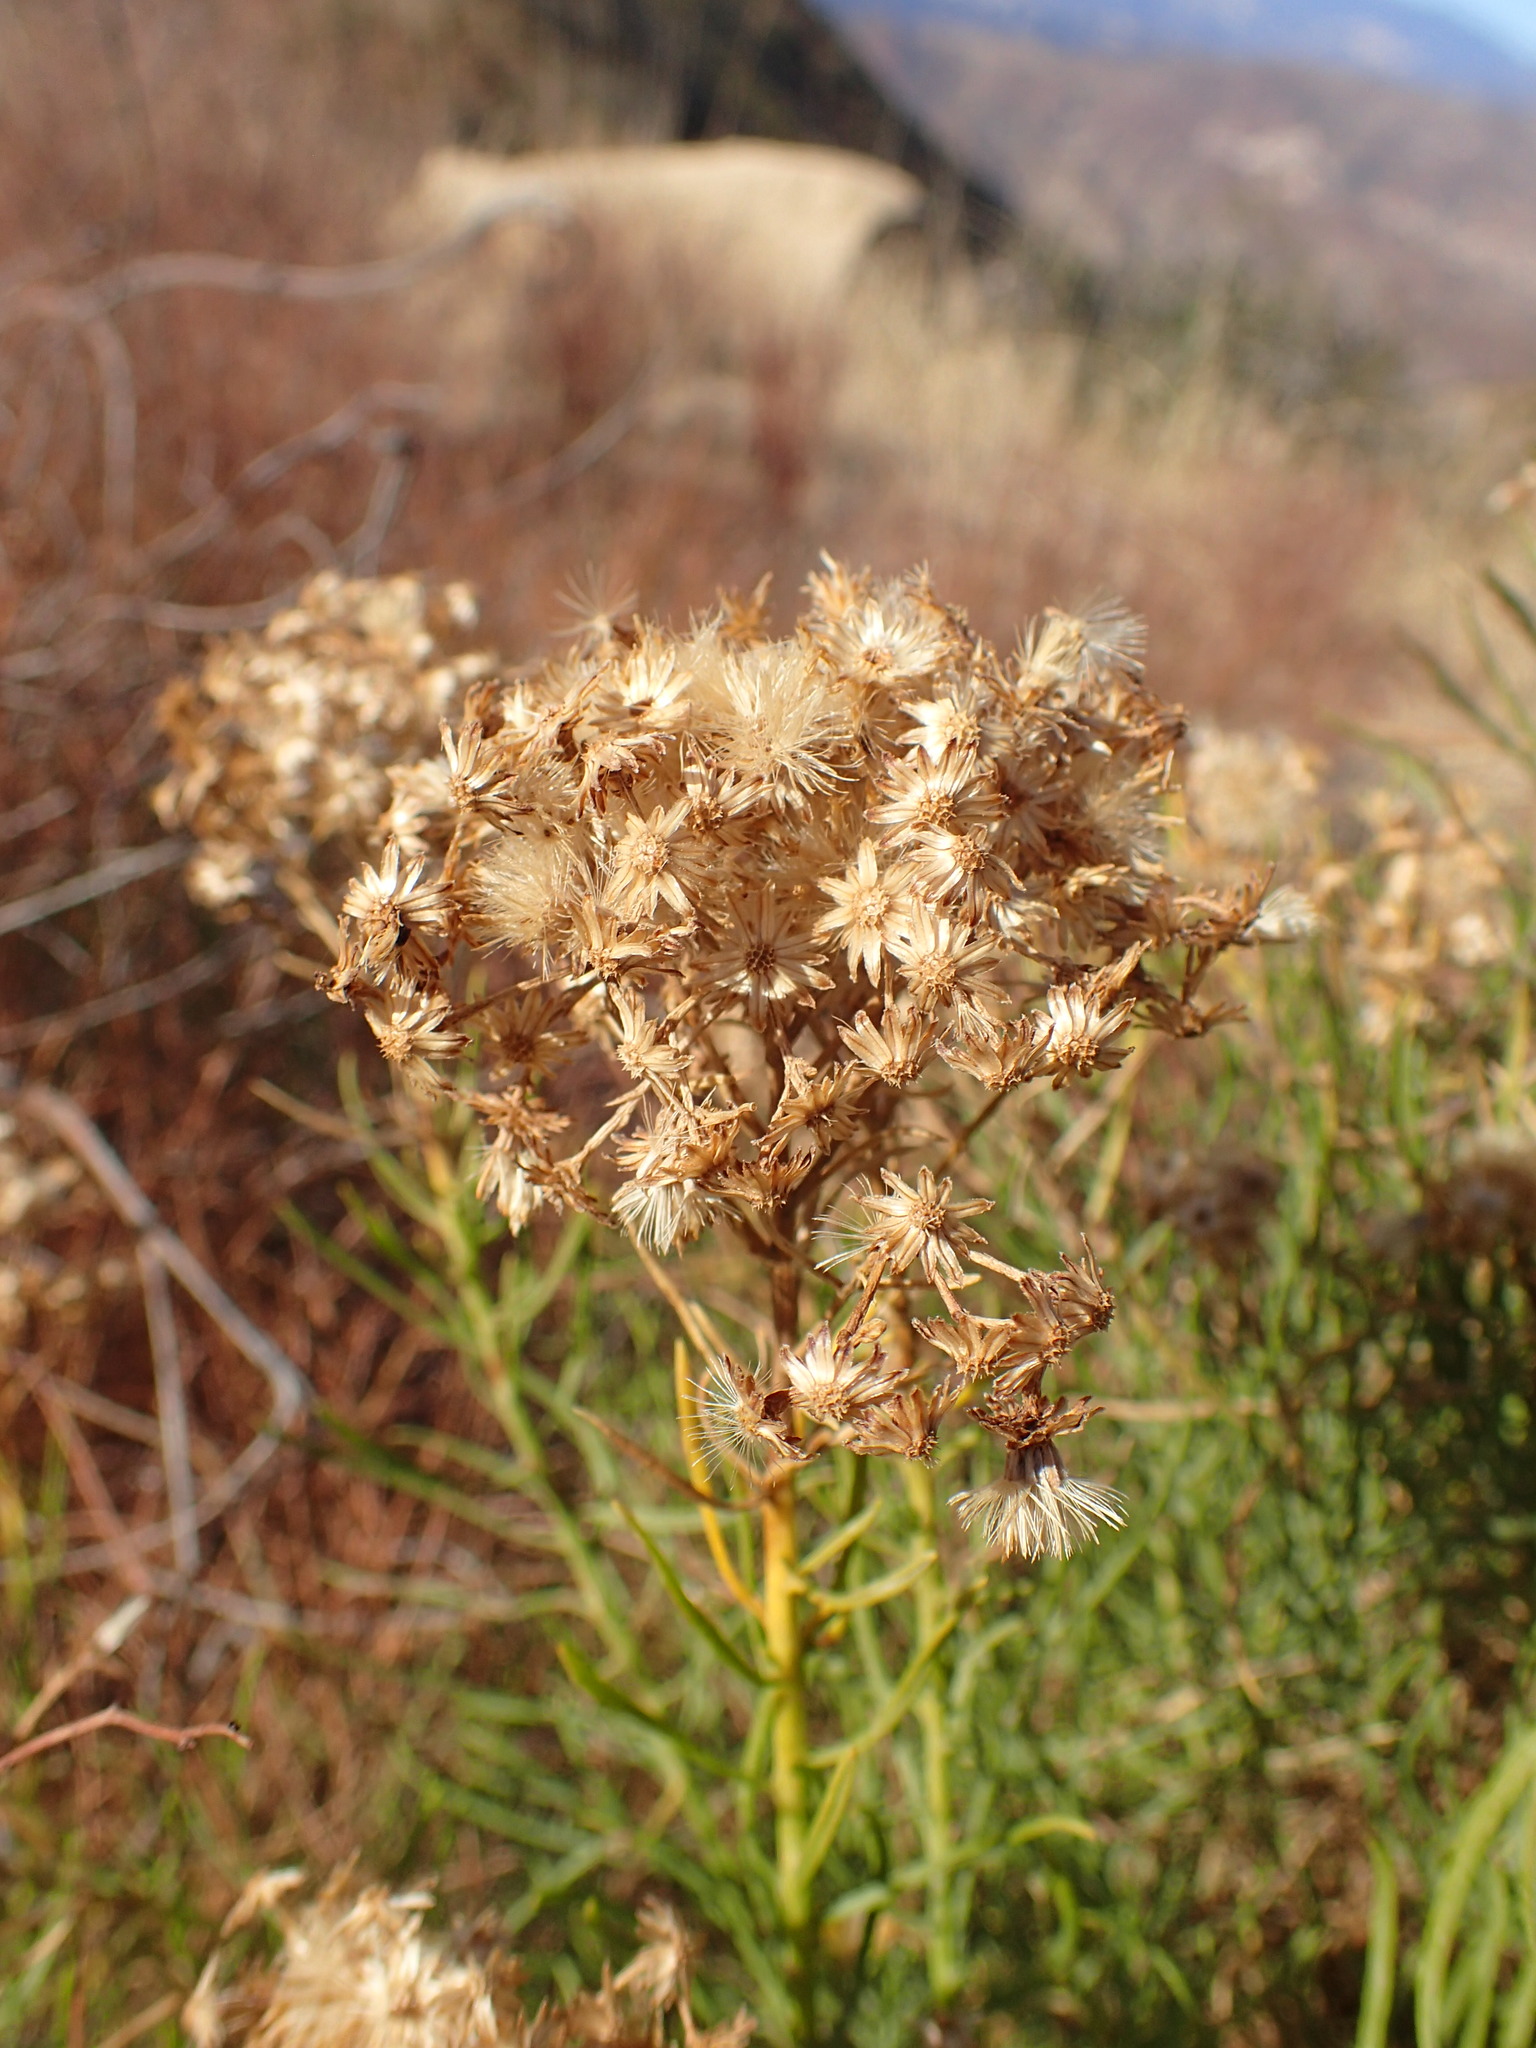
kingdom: Plantae
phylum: Tracheophyta
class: Magnoliopsida
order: Asterales
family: Asteraceae
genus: Ericameria
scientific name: Ericameria arborescens
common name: Goldenfleece
